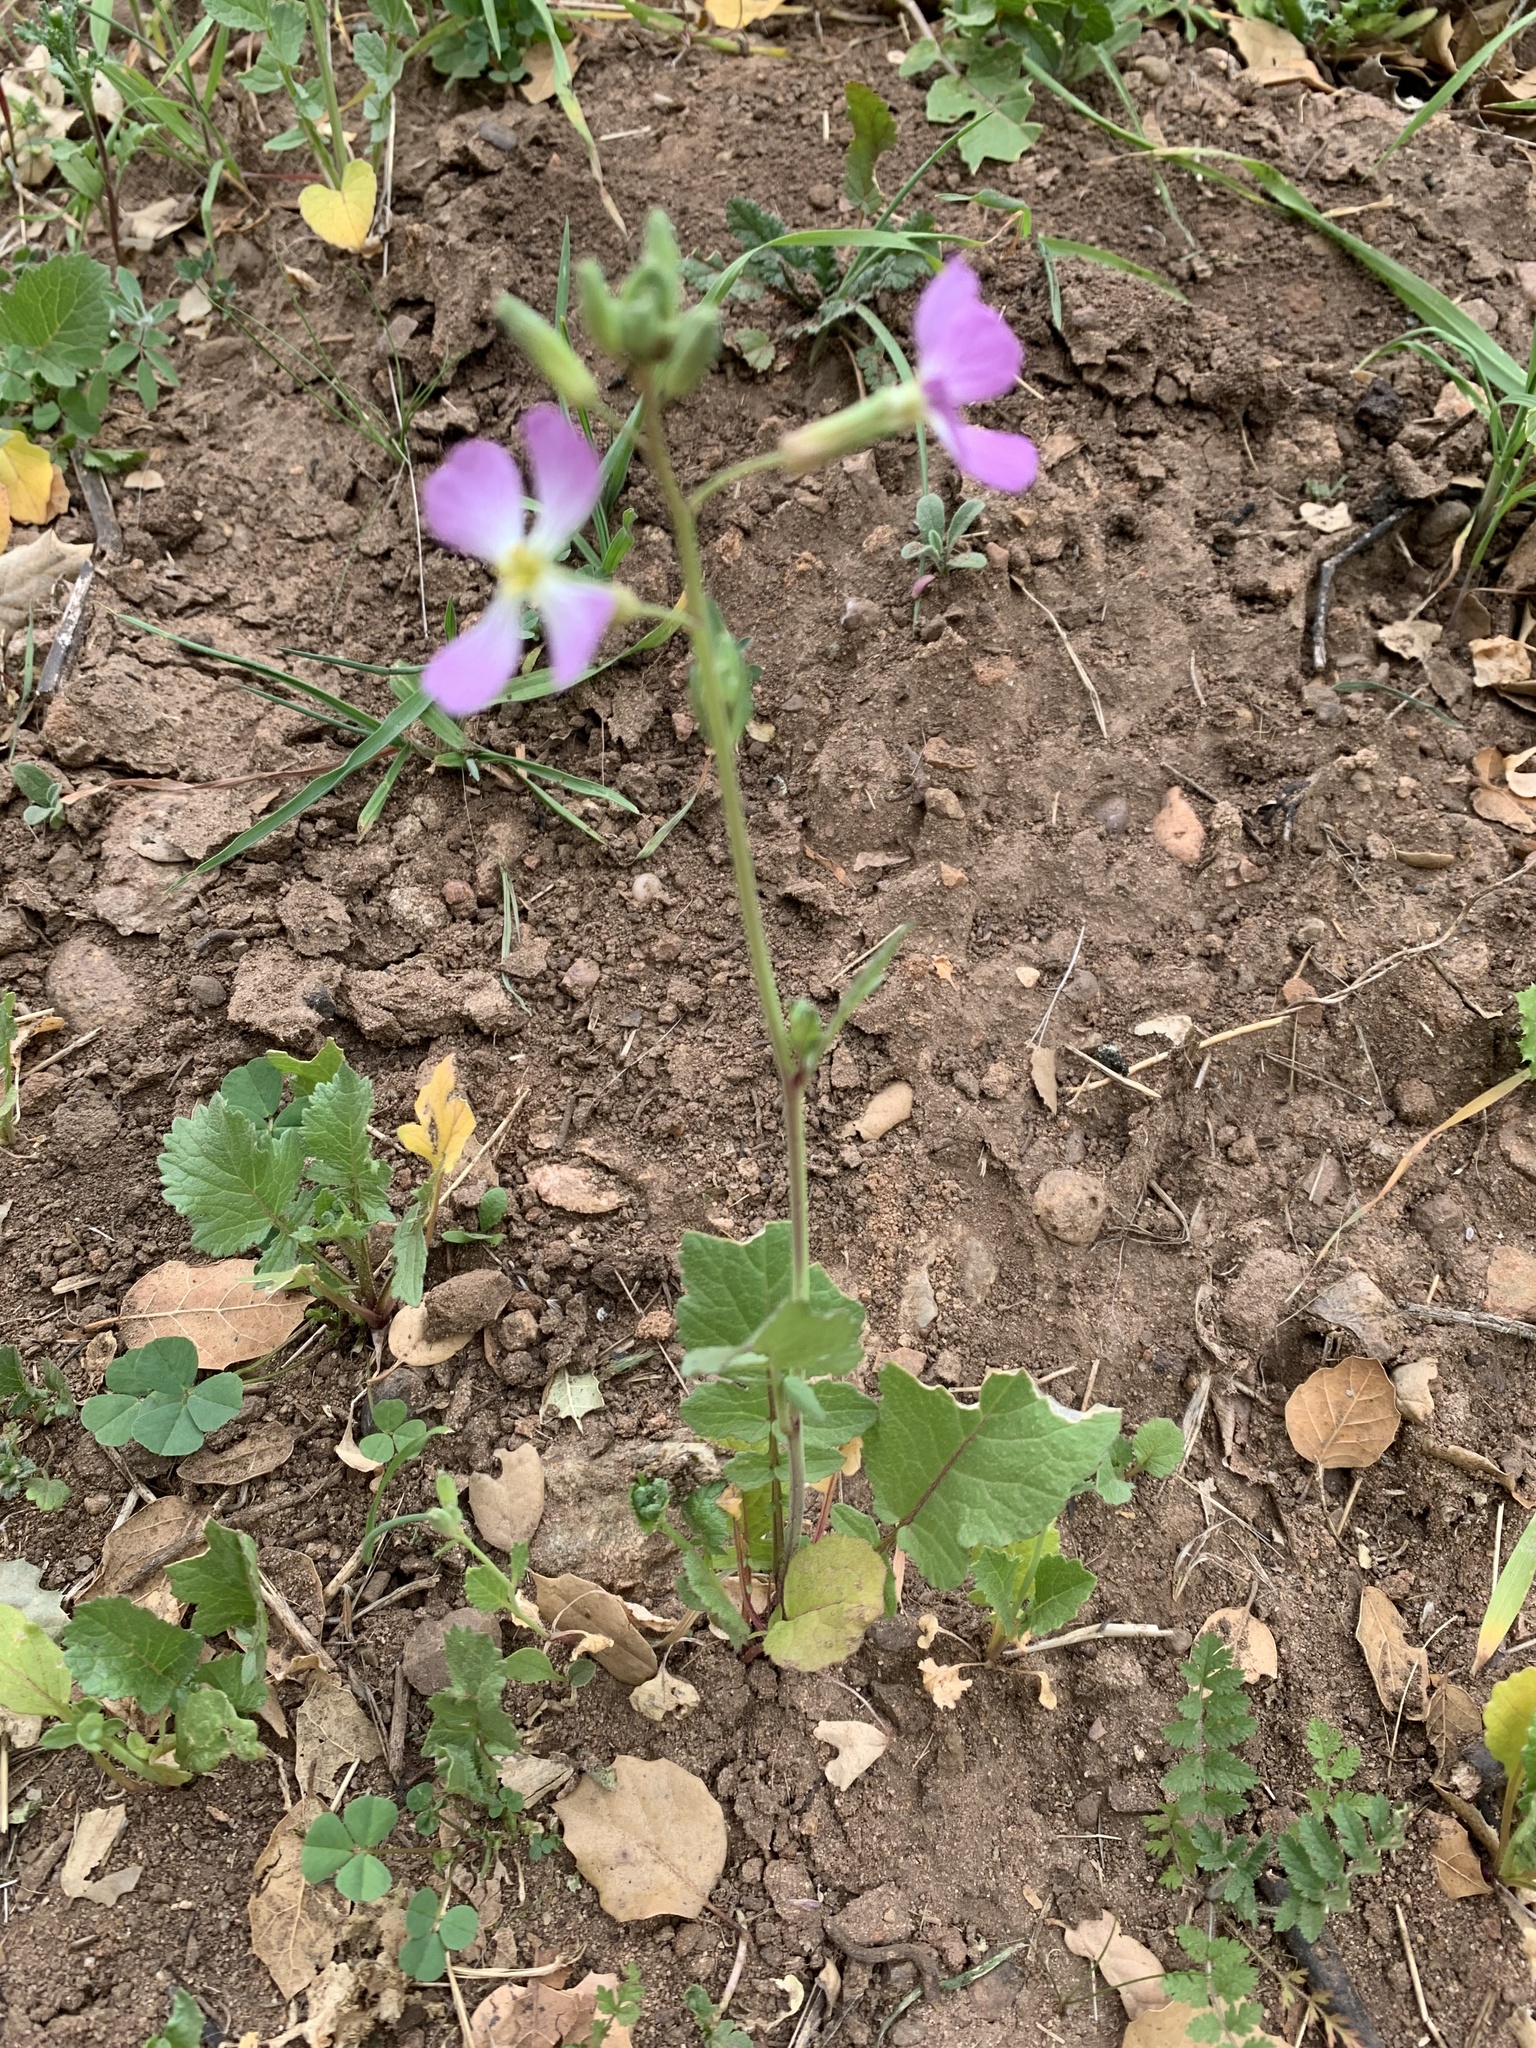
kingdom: Plantae
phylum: Tracheophyta
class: Magnoliopsida
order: Brassicales
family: Brassicaceae
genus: Raphanus
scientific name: Raphanus sativus
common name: Cultivated radish
